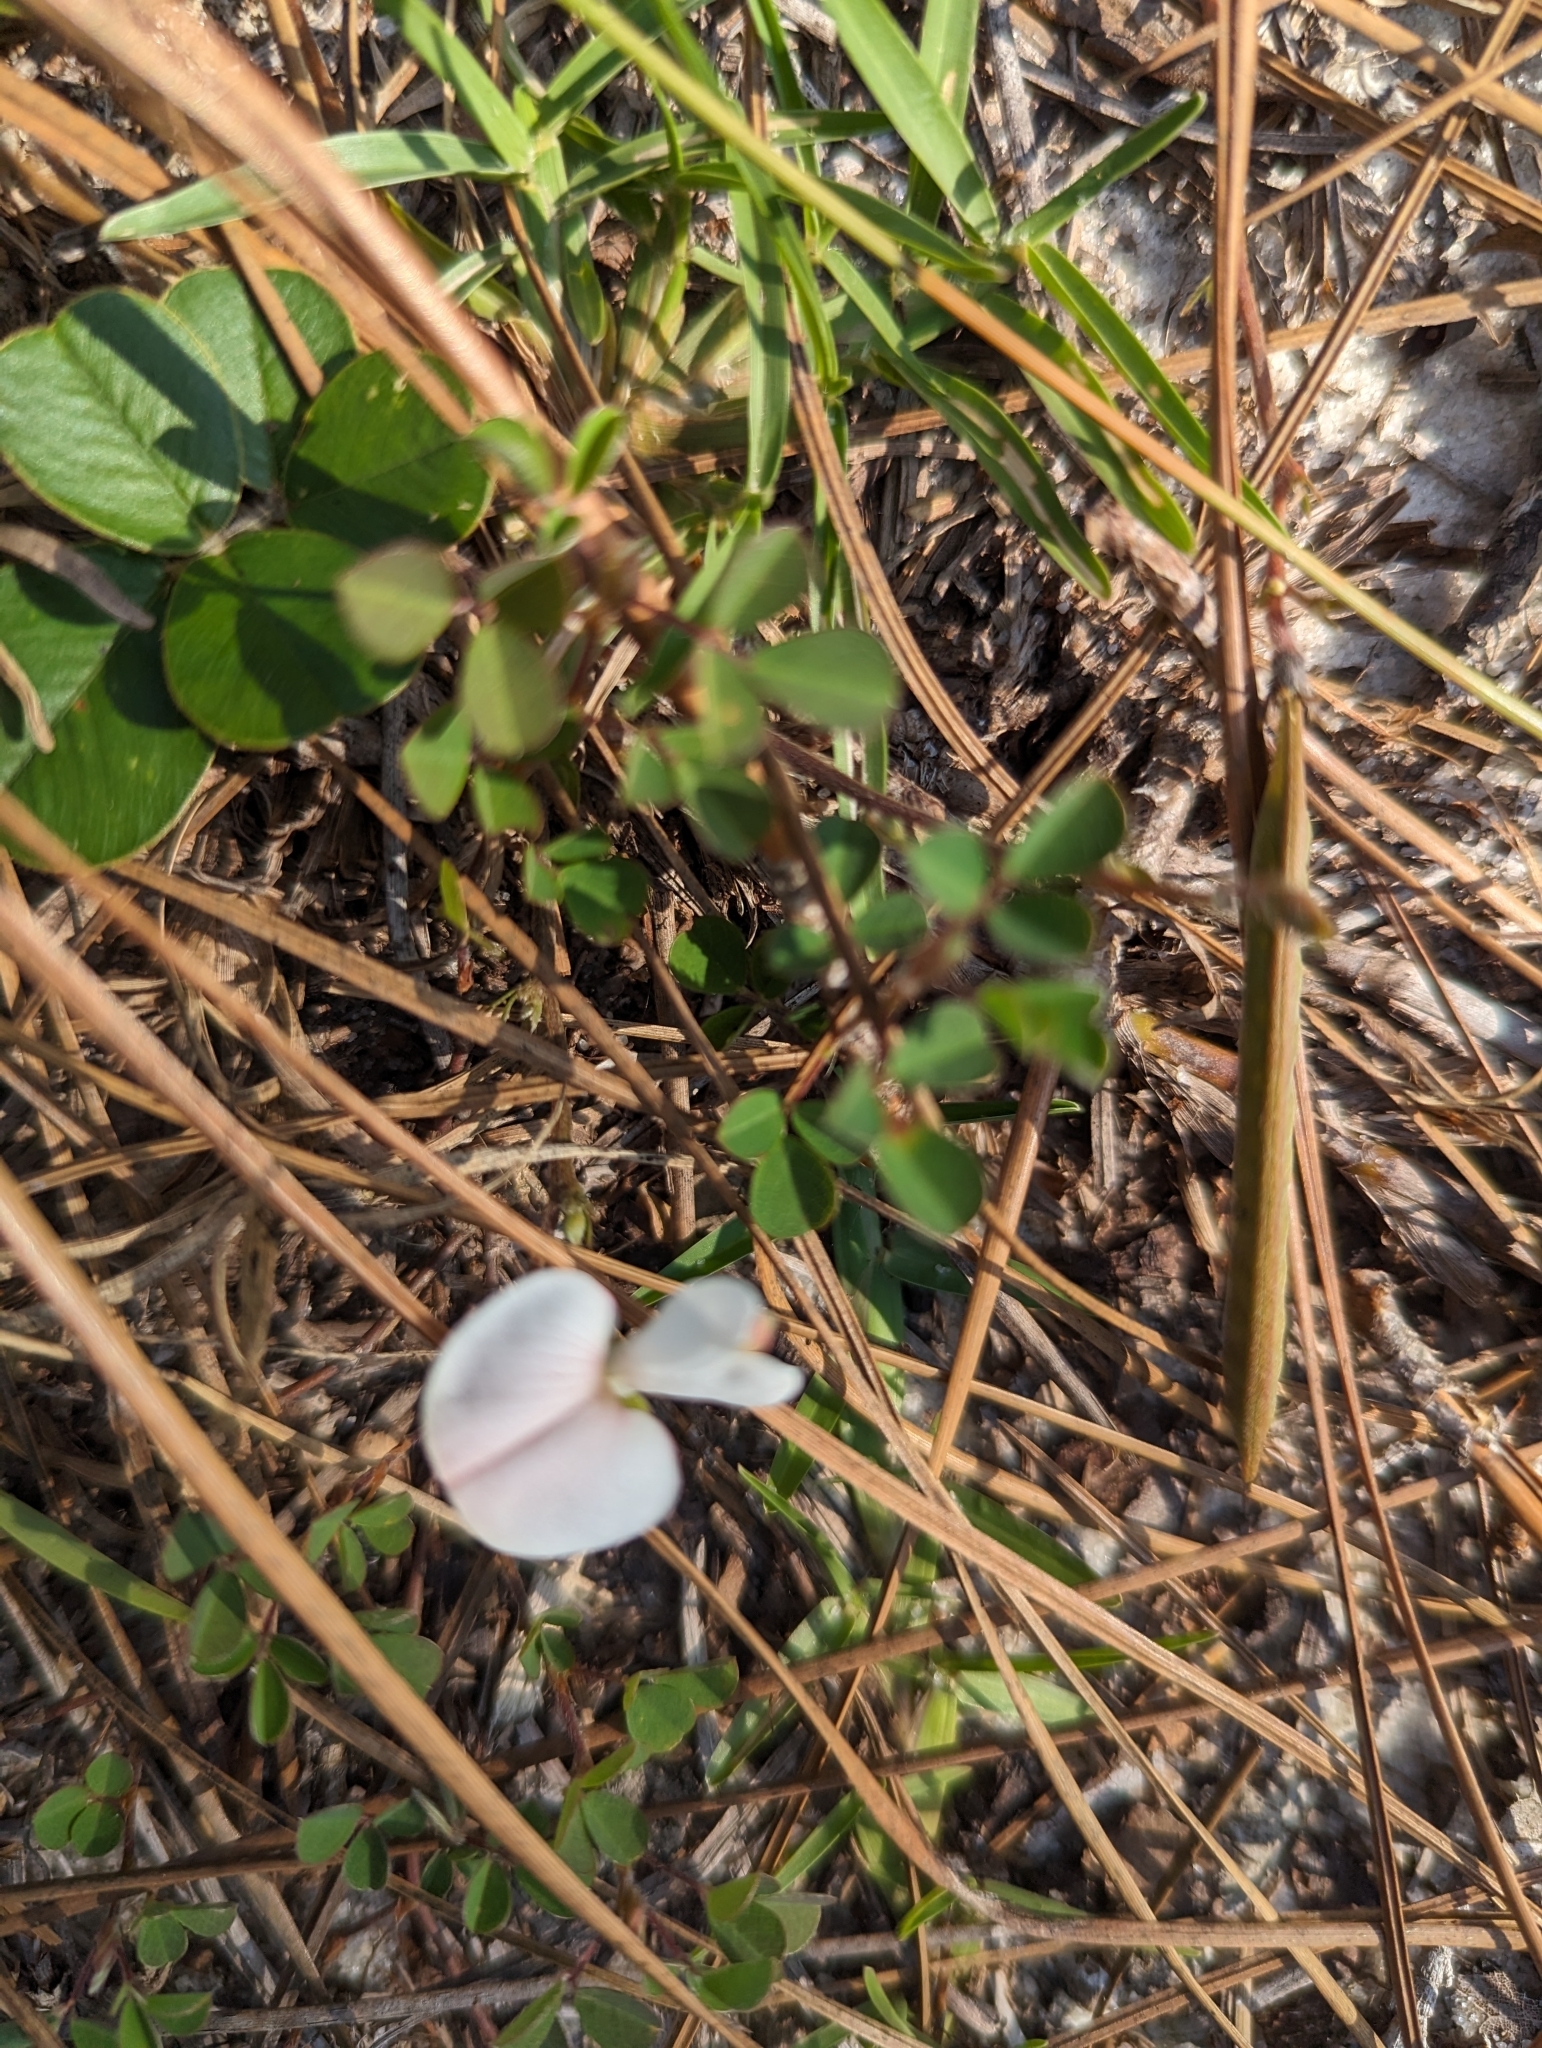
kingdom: Plantae
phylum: Tracheophyta
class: Magnoliopsida
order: Fabales
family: Fabaceae
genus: Tephrosia
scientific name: Tephrosia chrysophylla
